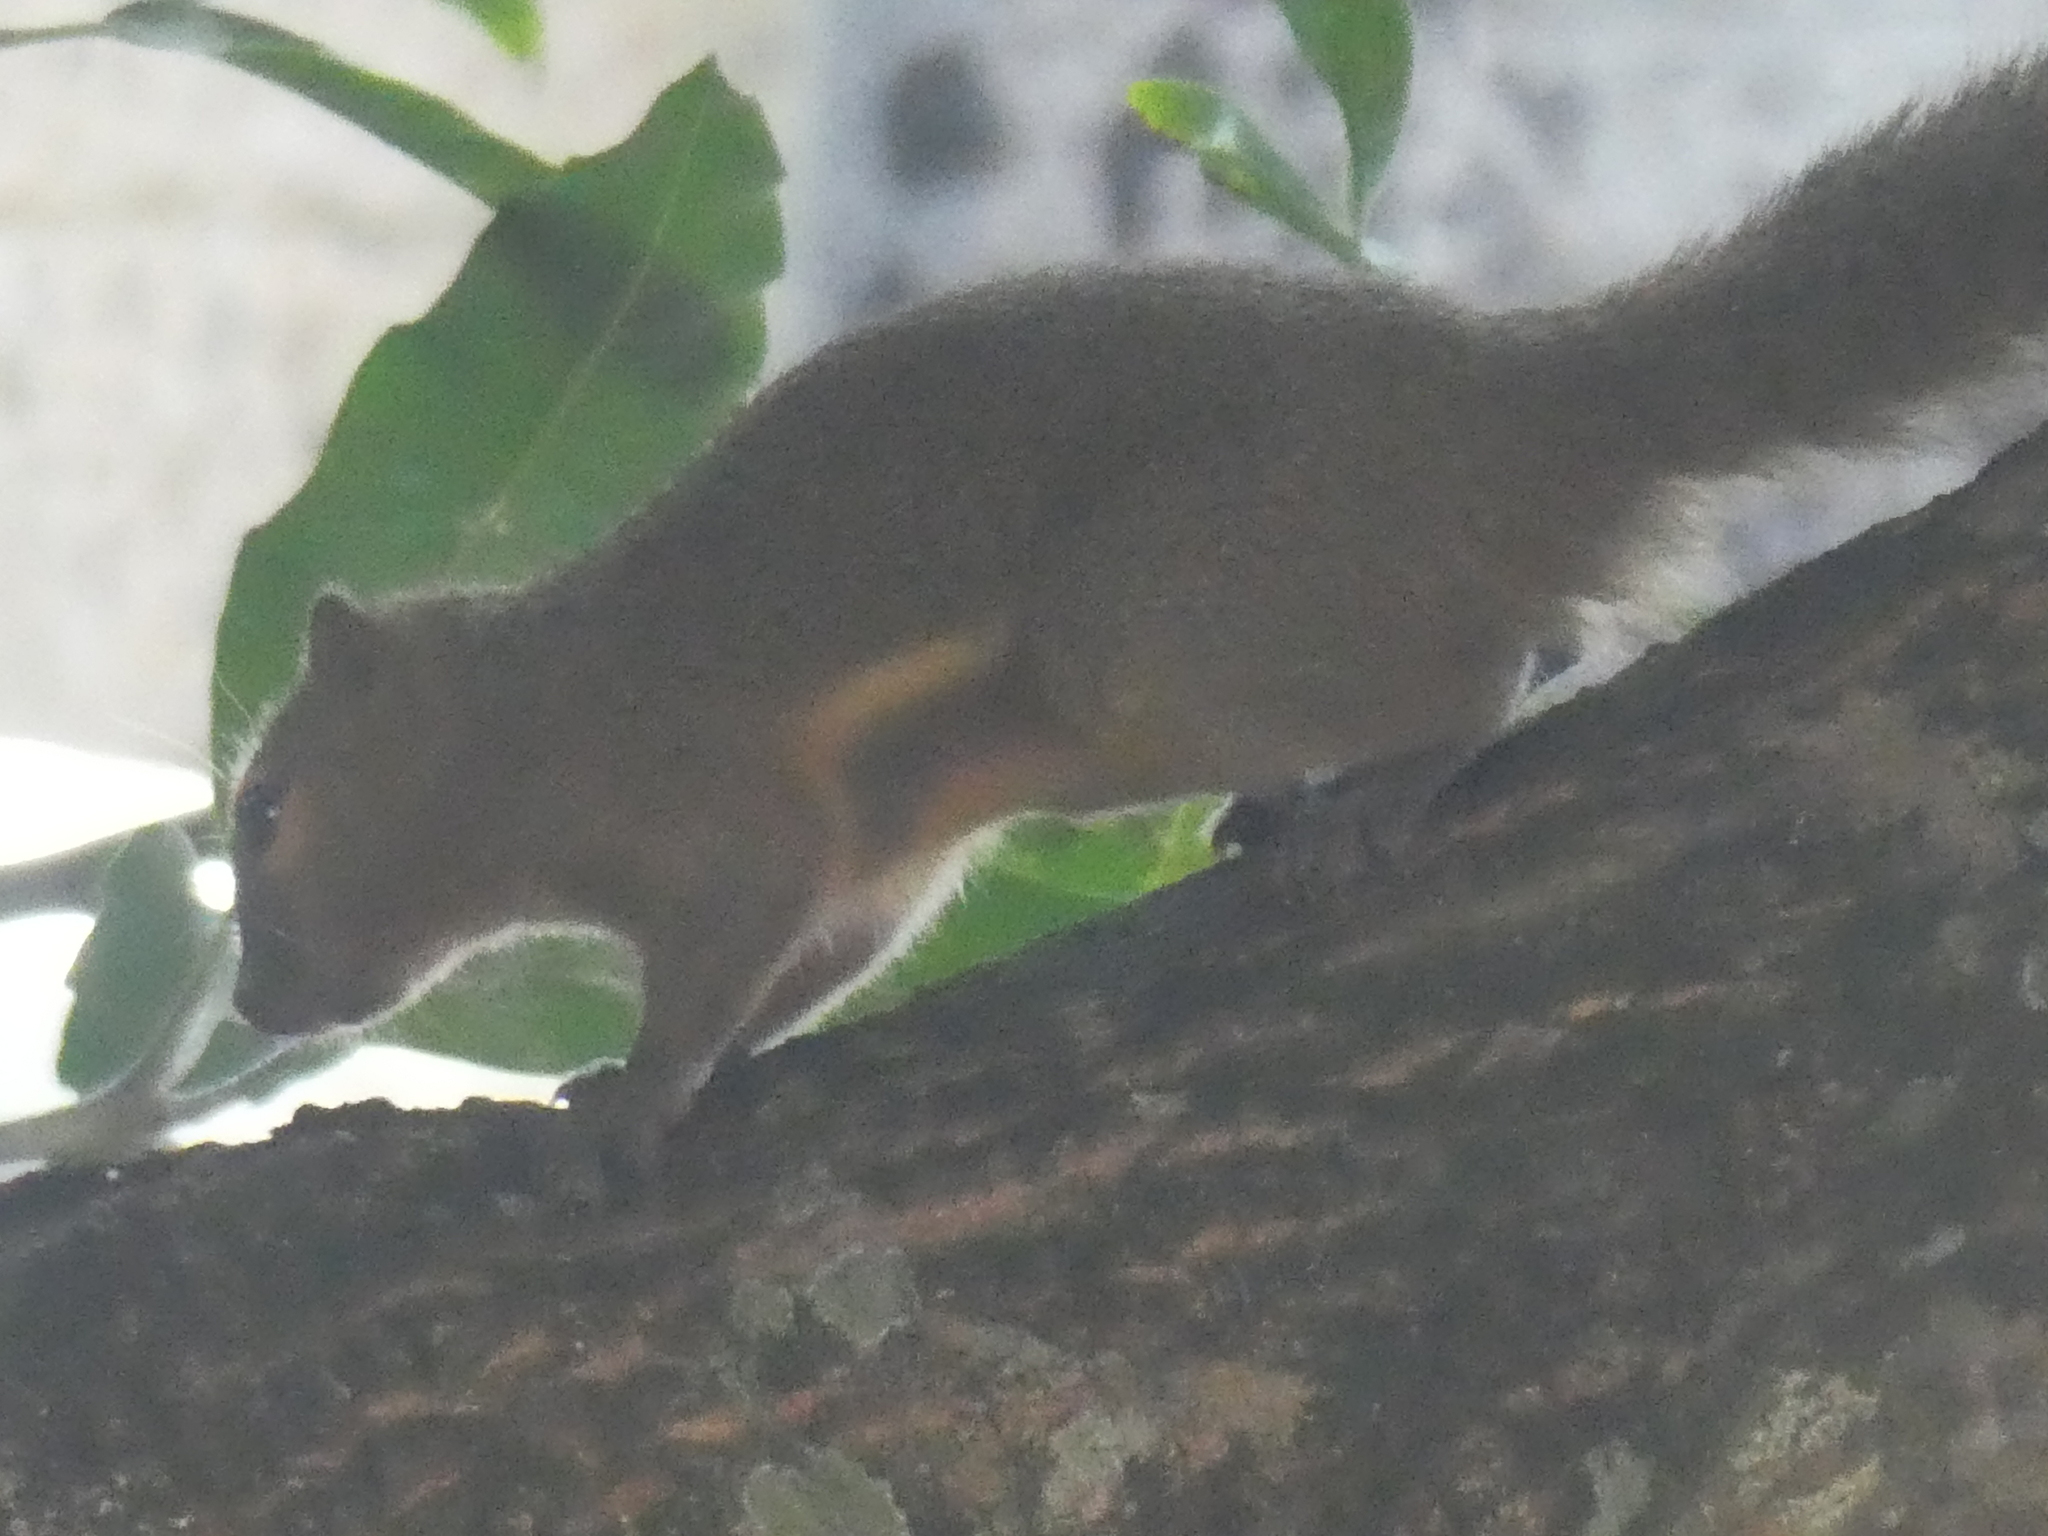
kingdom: Animalia
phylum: Chordata
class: Mammalia
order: Rodentia
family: Sciuridae
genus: Callosciurus
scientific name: Callosciurus notatus
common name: Plantain squirrel
